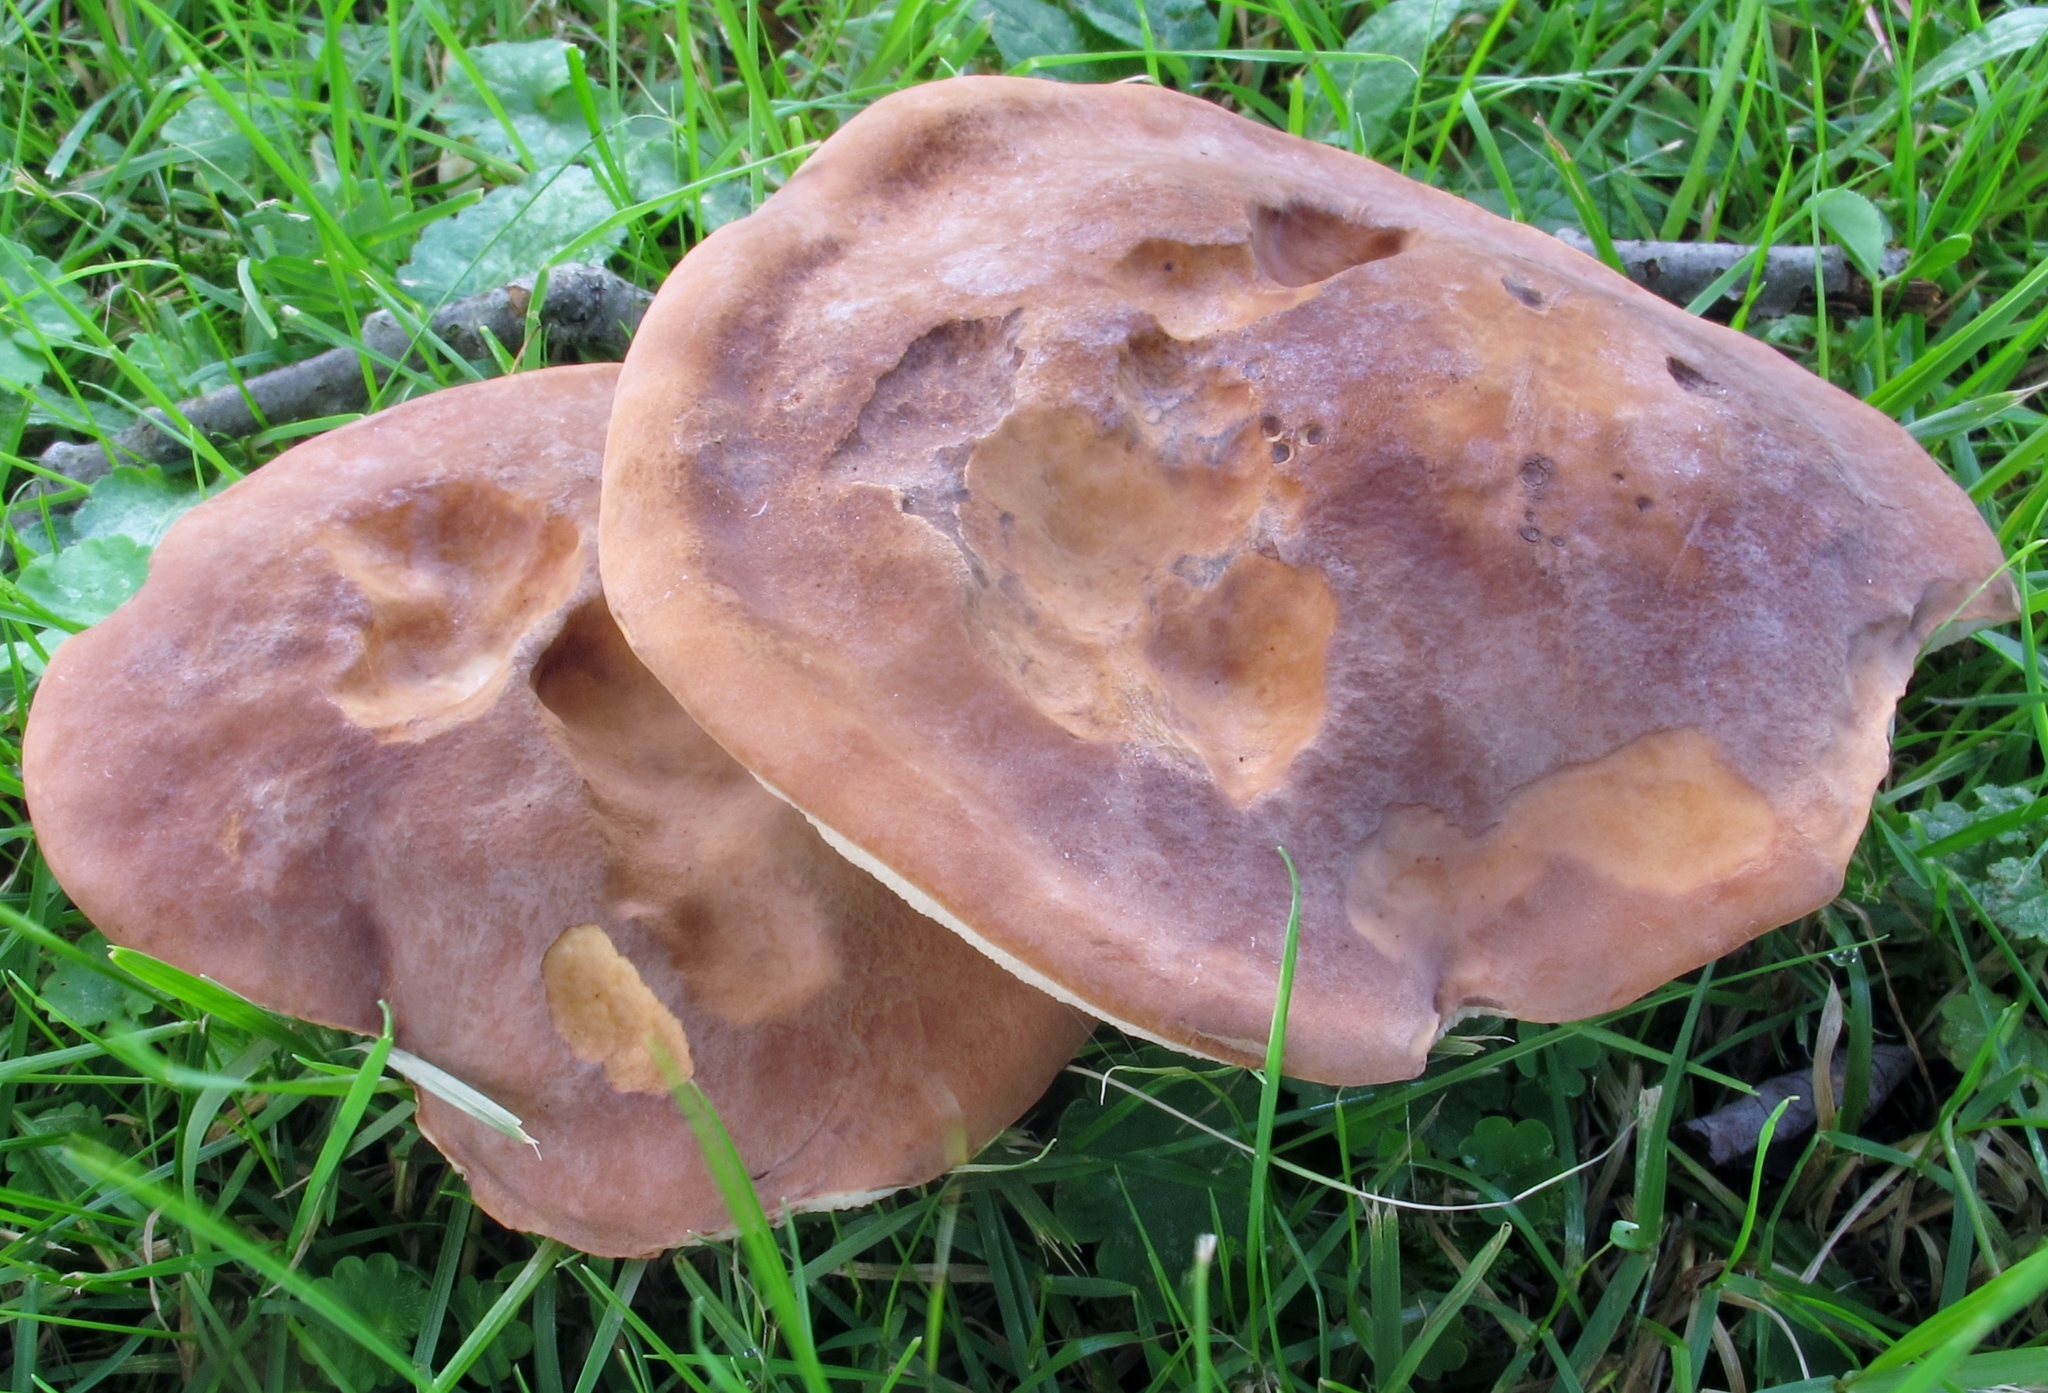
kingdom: Fungi
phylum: Basidiomycota
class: Agaricomycetes
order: Boletales
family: Boletaceae
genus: Tylopilus
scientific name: Tylopilus badiceps
